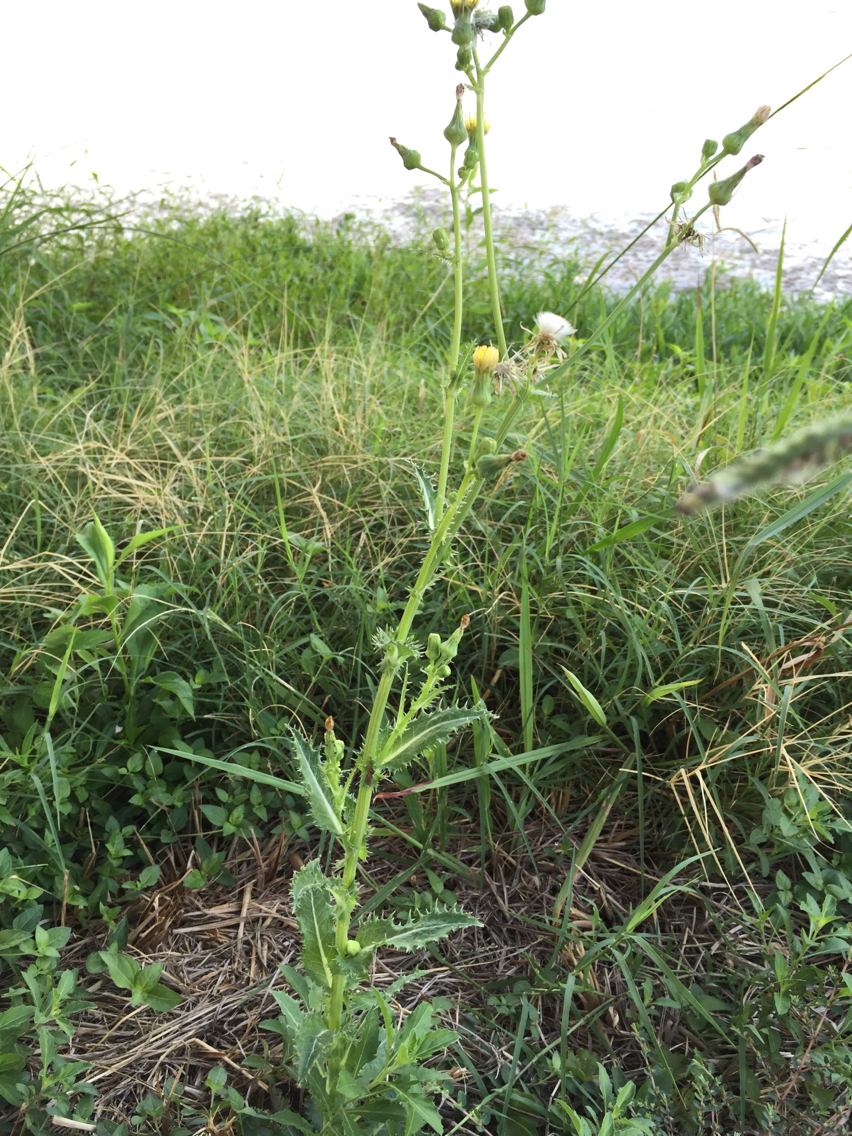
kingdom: Plantae
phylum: Tracheophyta
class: Magnoliopsida
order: Asterales
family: Asteraceae
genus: Sonchus
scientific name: Sonchus asper
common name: Prickly sow-thistle
